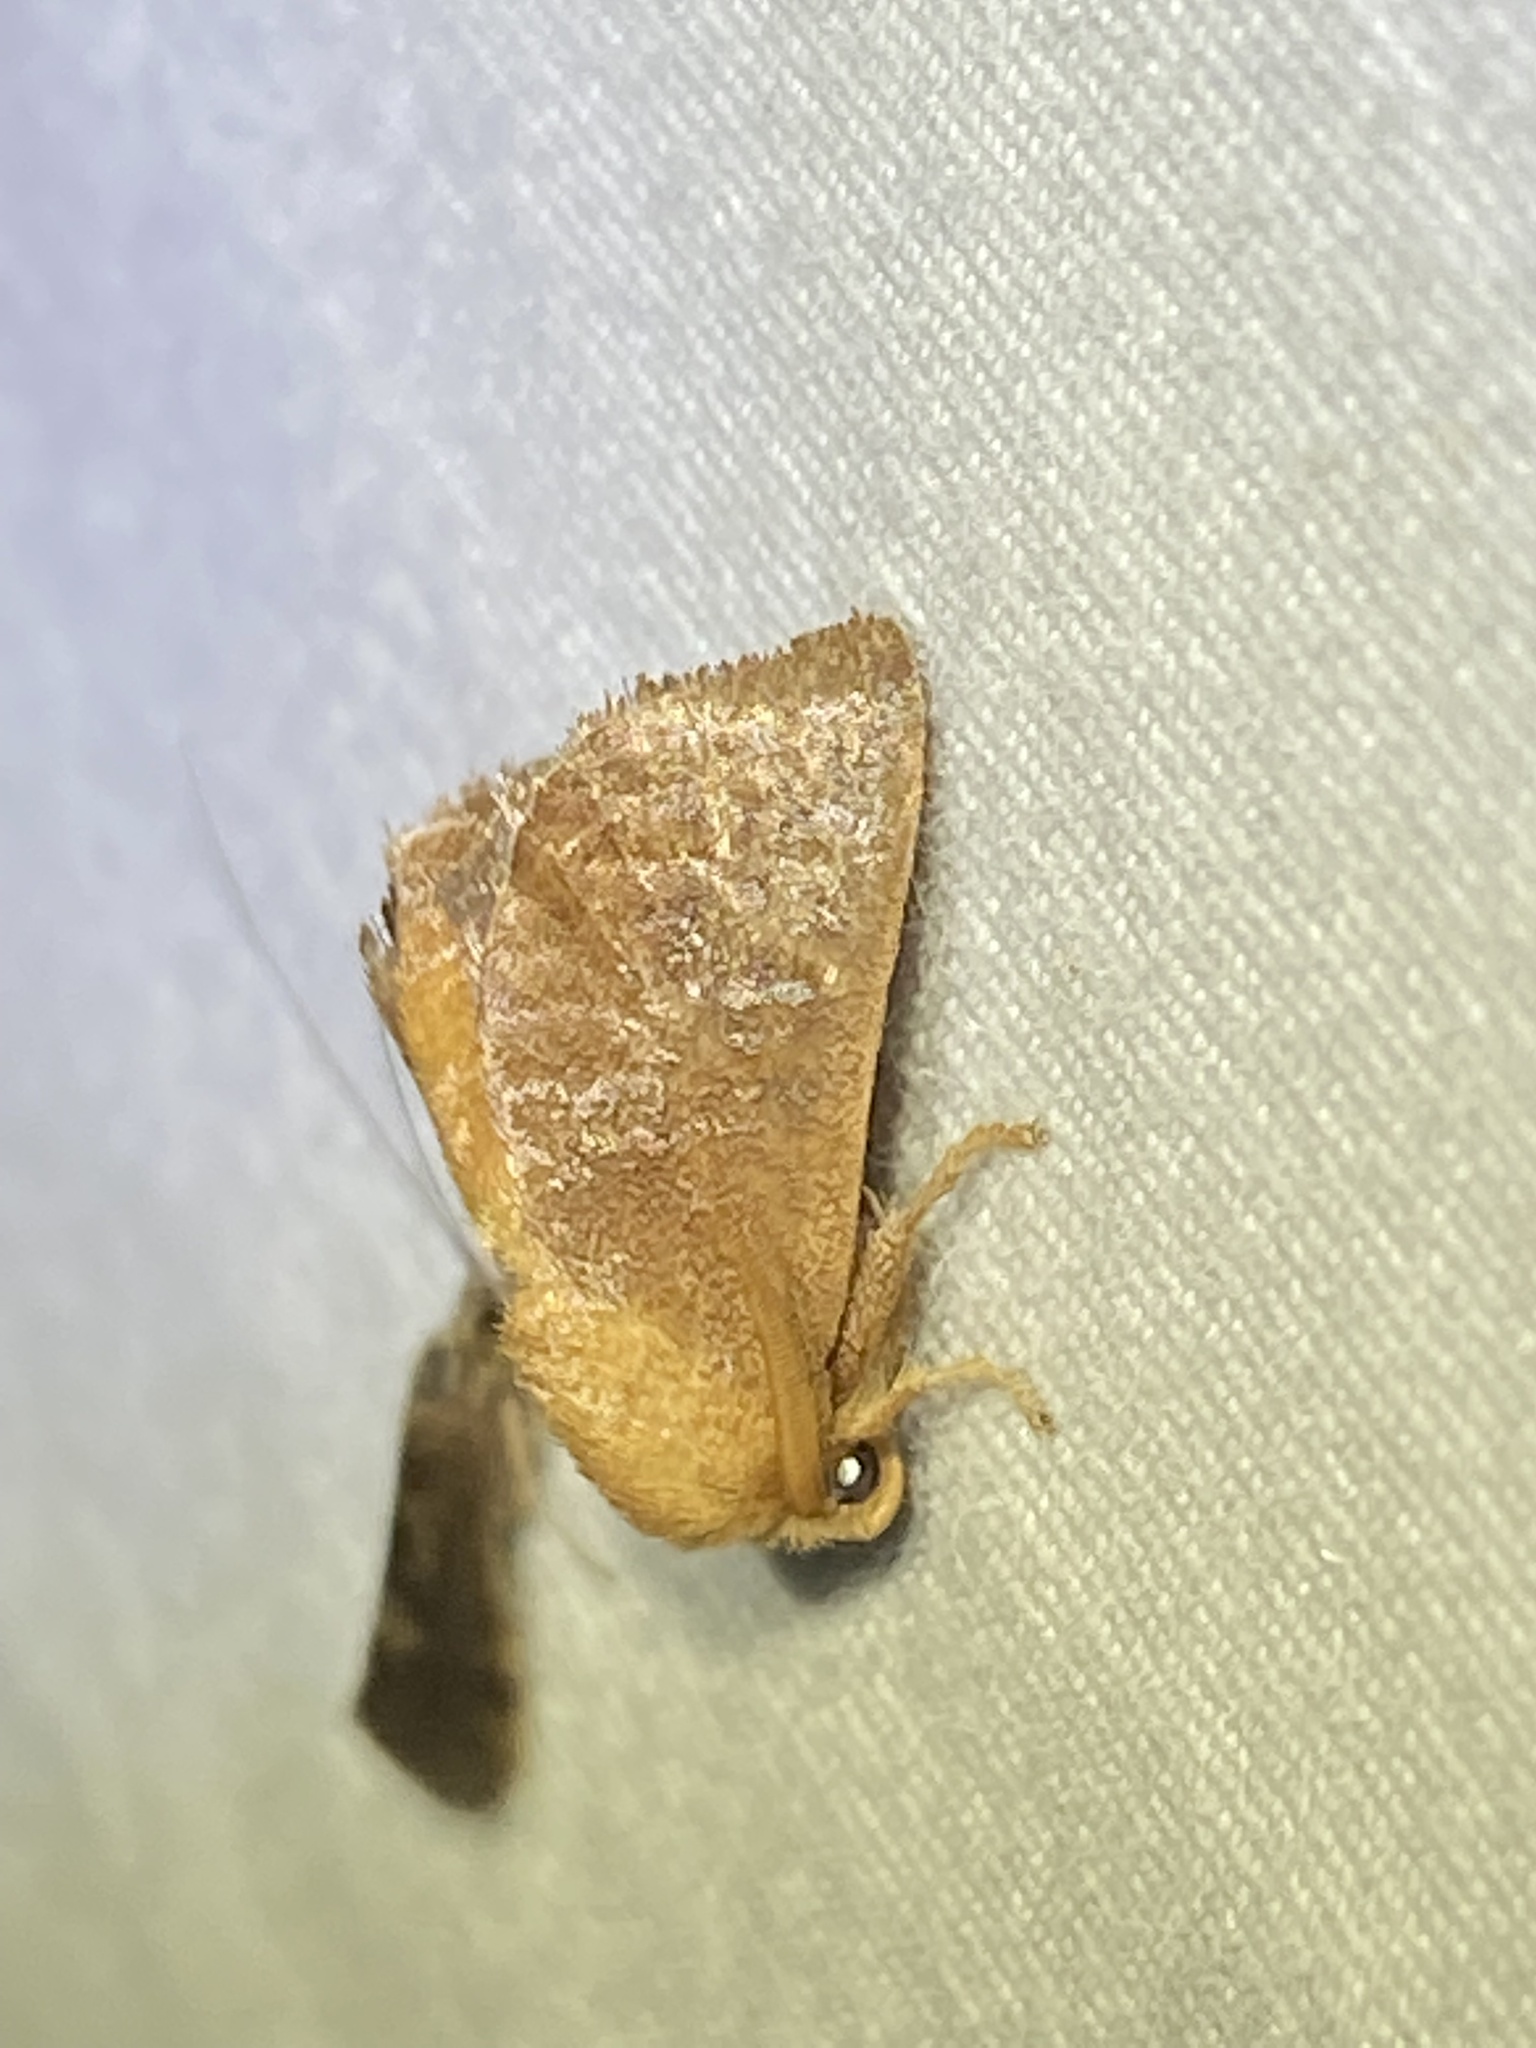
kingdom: Animalia
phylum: Arthropoda
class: Insecta
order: Lepidoptera
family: Limacodidae
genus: Isa
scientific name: Isa textula
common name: Crowned slug moth
